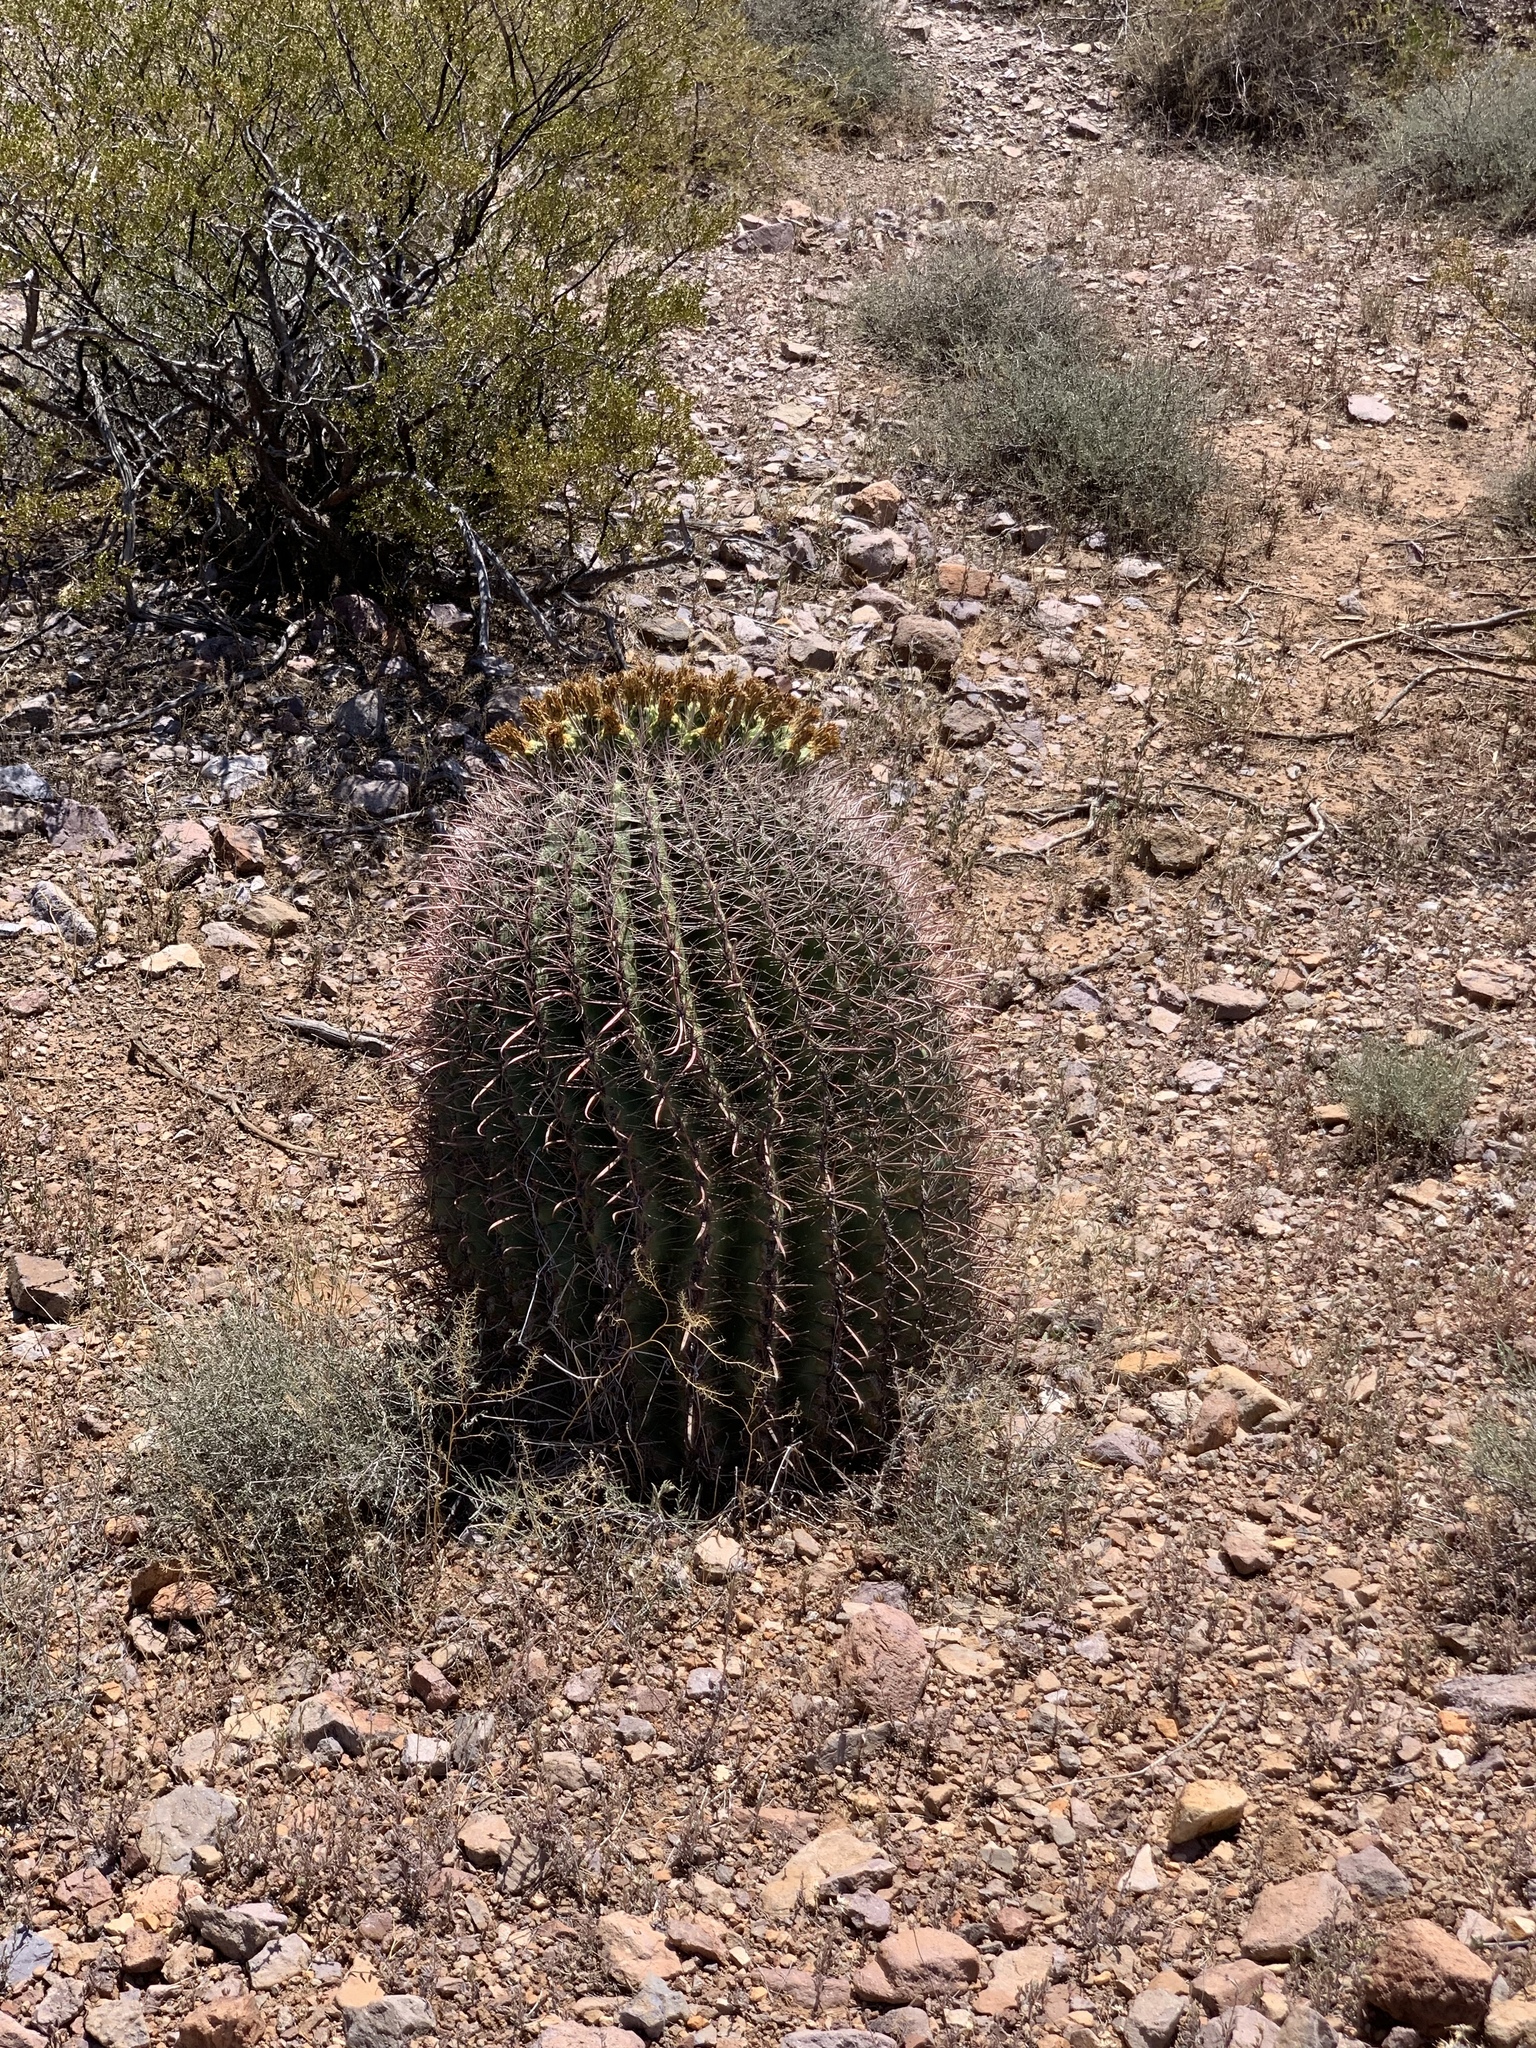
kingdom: Plantae
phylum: Tracheophyta
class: Magnoliopsida
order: Caryophyllales
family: Cactaceae
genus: Ferocactus
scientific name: Ferocactus wislizeni
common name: Candy barrel cactus
